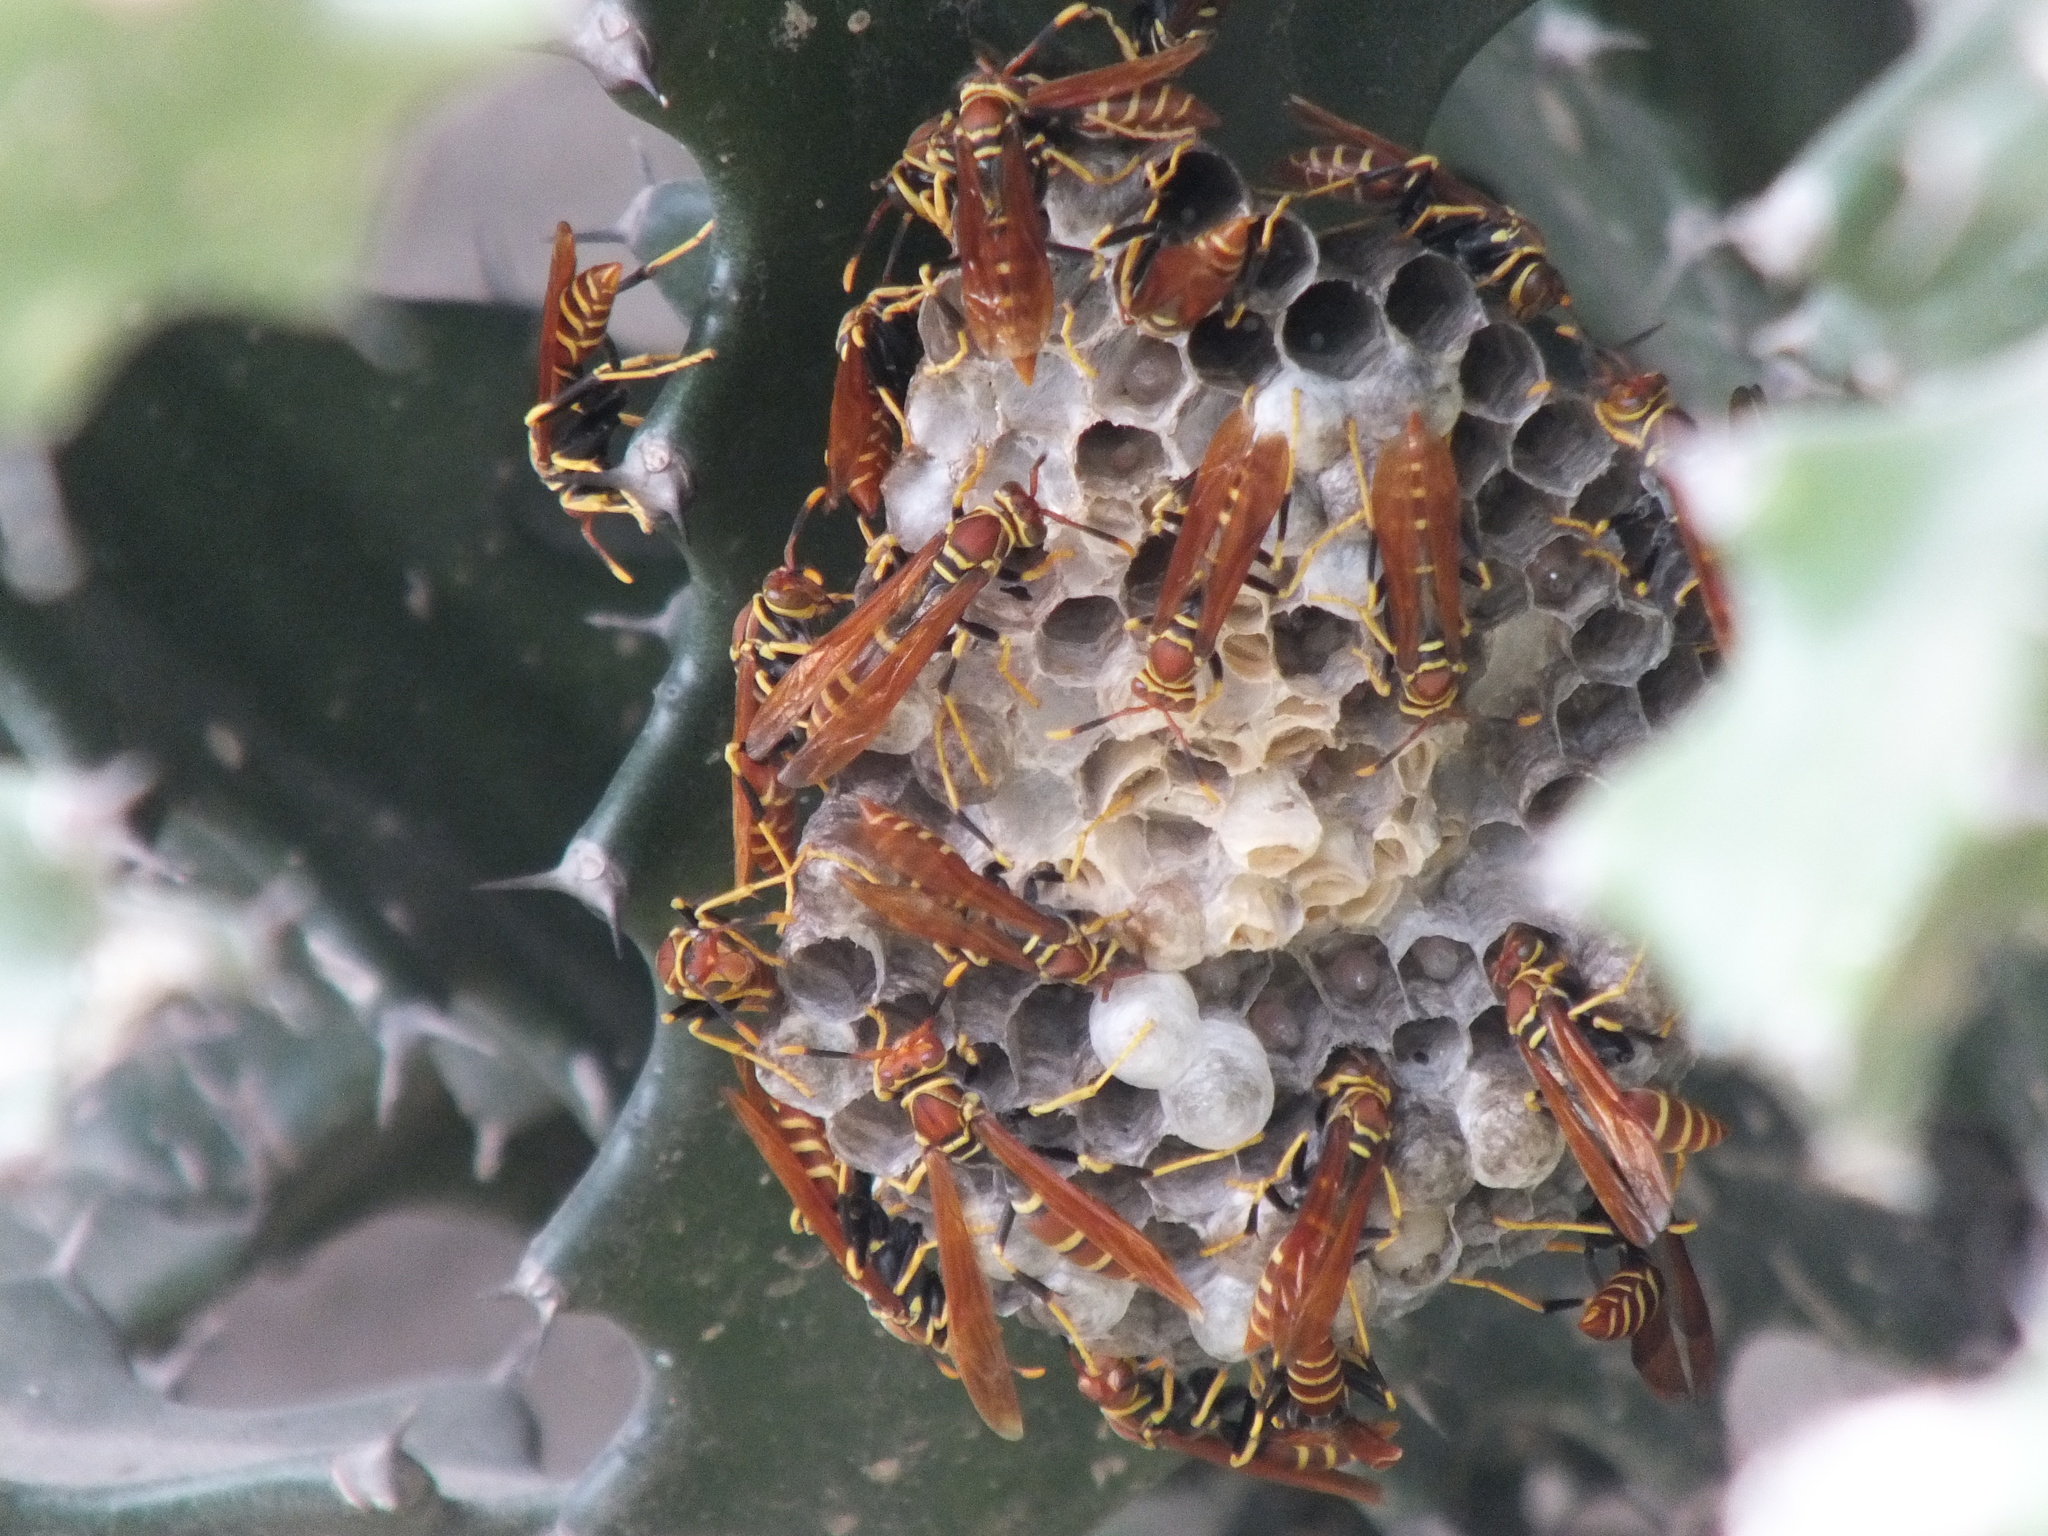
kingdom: Animalia
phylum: Arthropoda
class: Insecta
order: Hymenoptera
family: Eumenidae
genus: Polistes
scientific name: Polistes crinitus
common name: Jack spaniard
